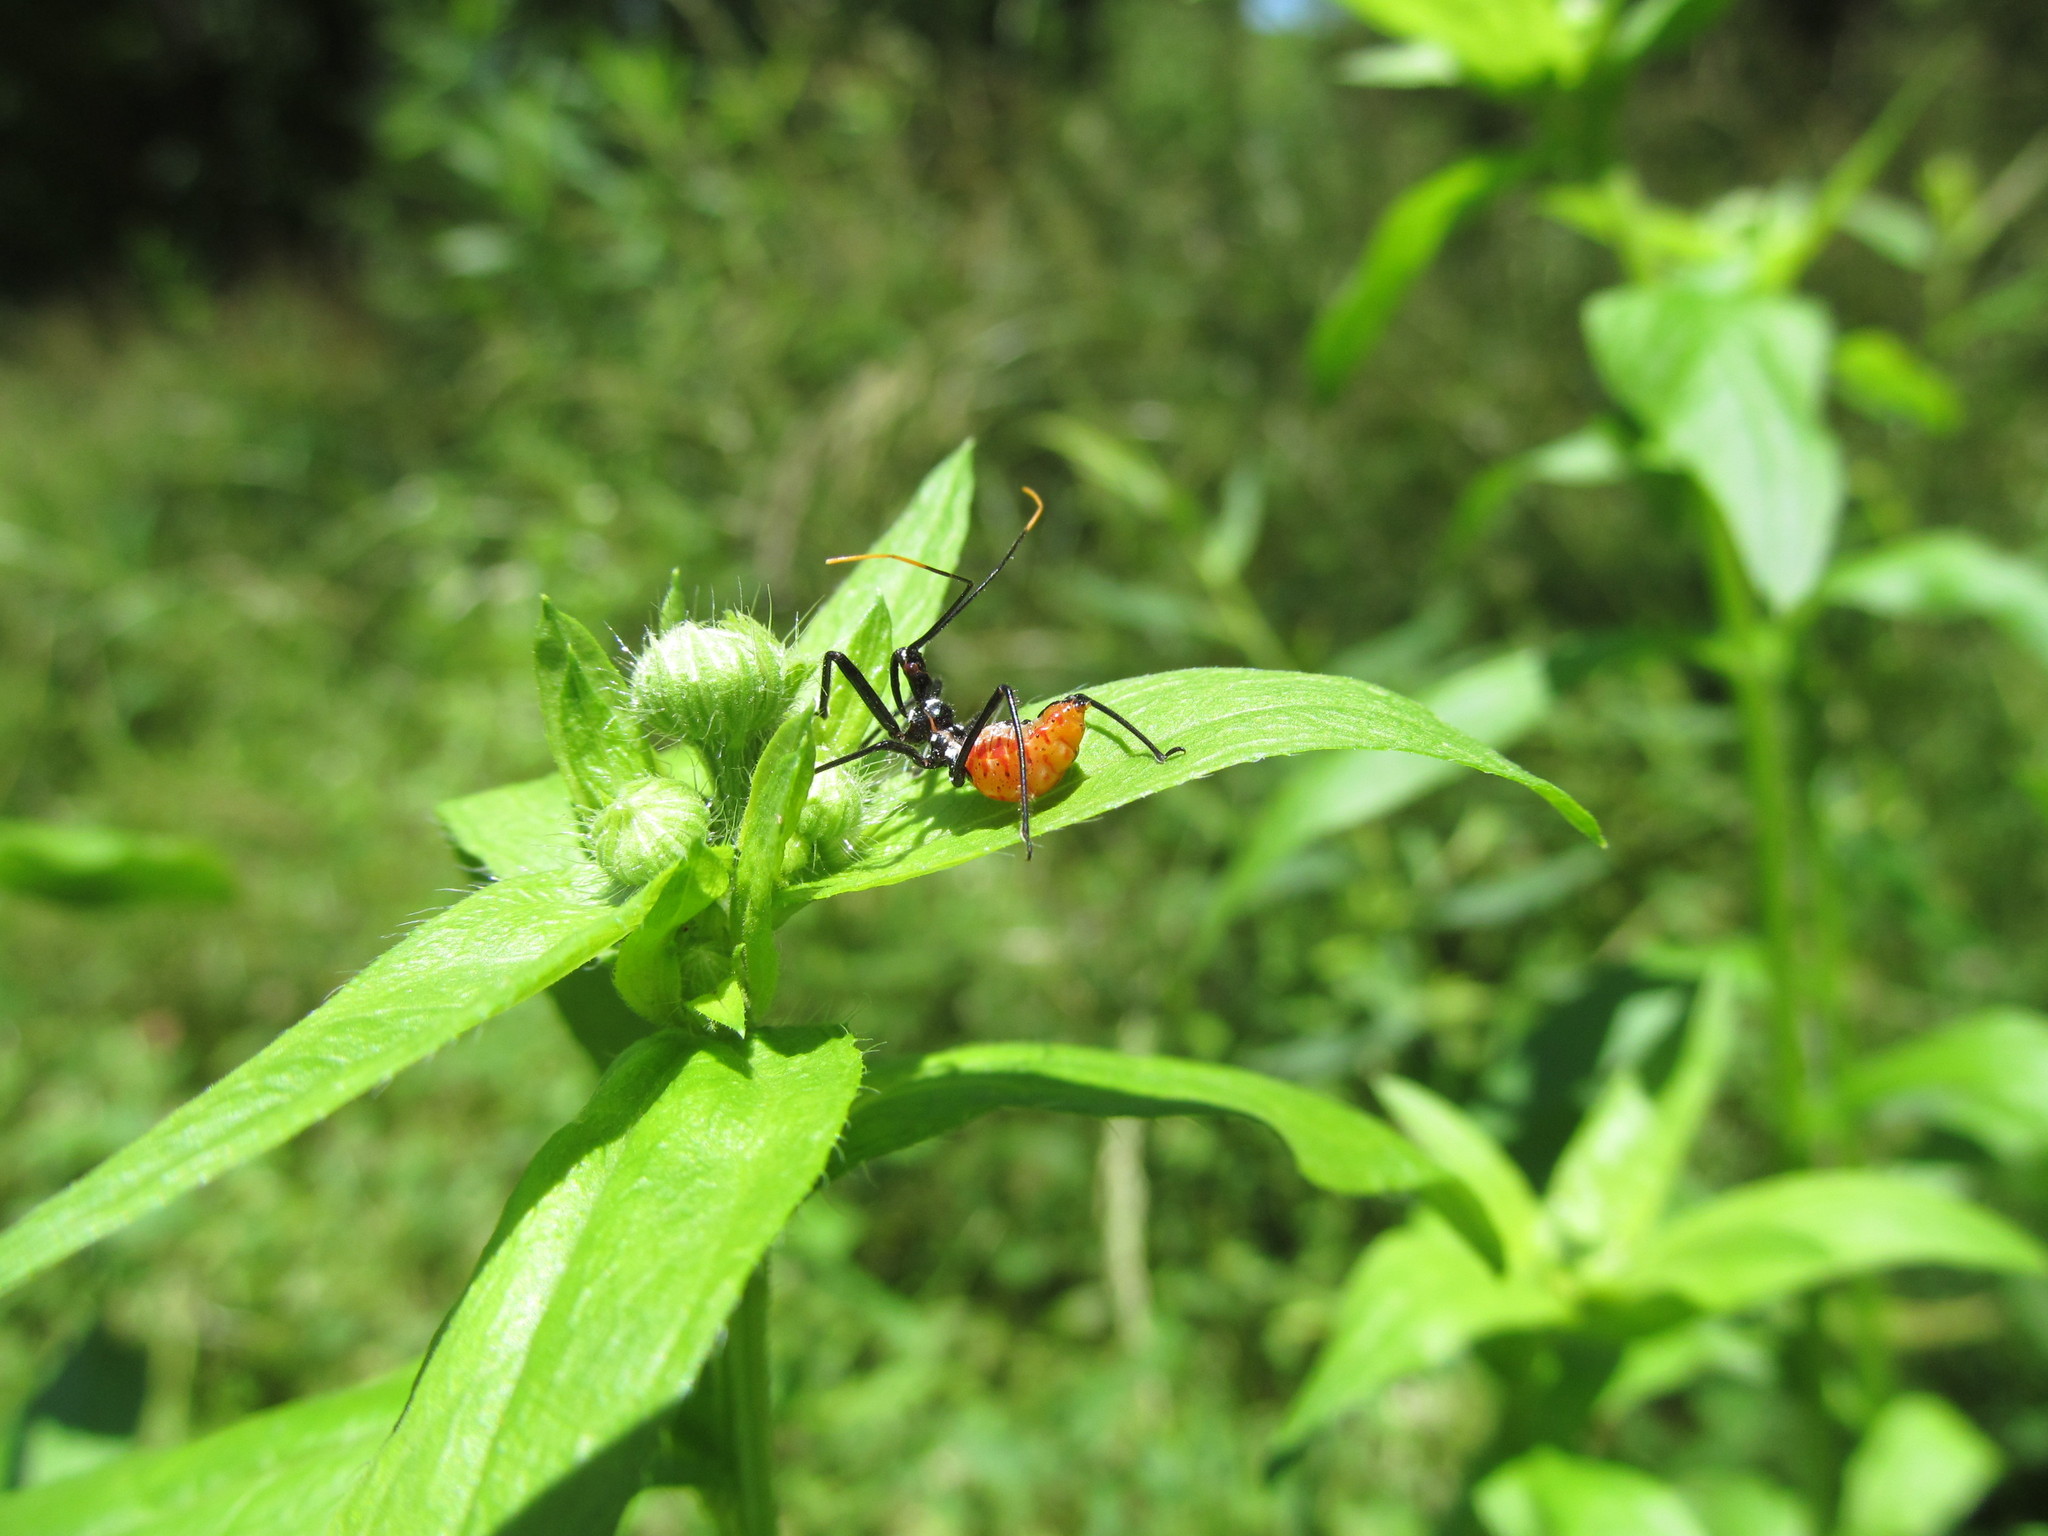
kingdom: Animalia
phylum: Arthropoda
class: Insecta
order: Hemiptera
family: Reduviidae
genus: Arilus
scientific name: Arilus cristatus
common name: North american wheel bug
